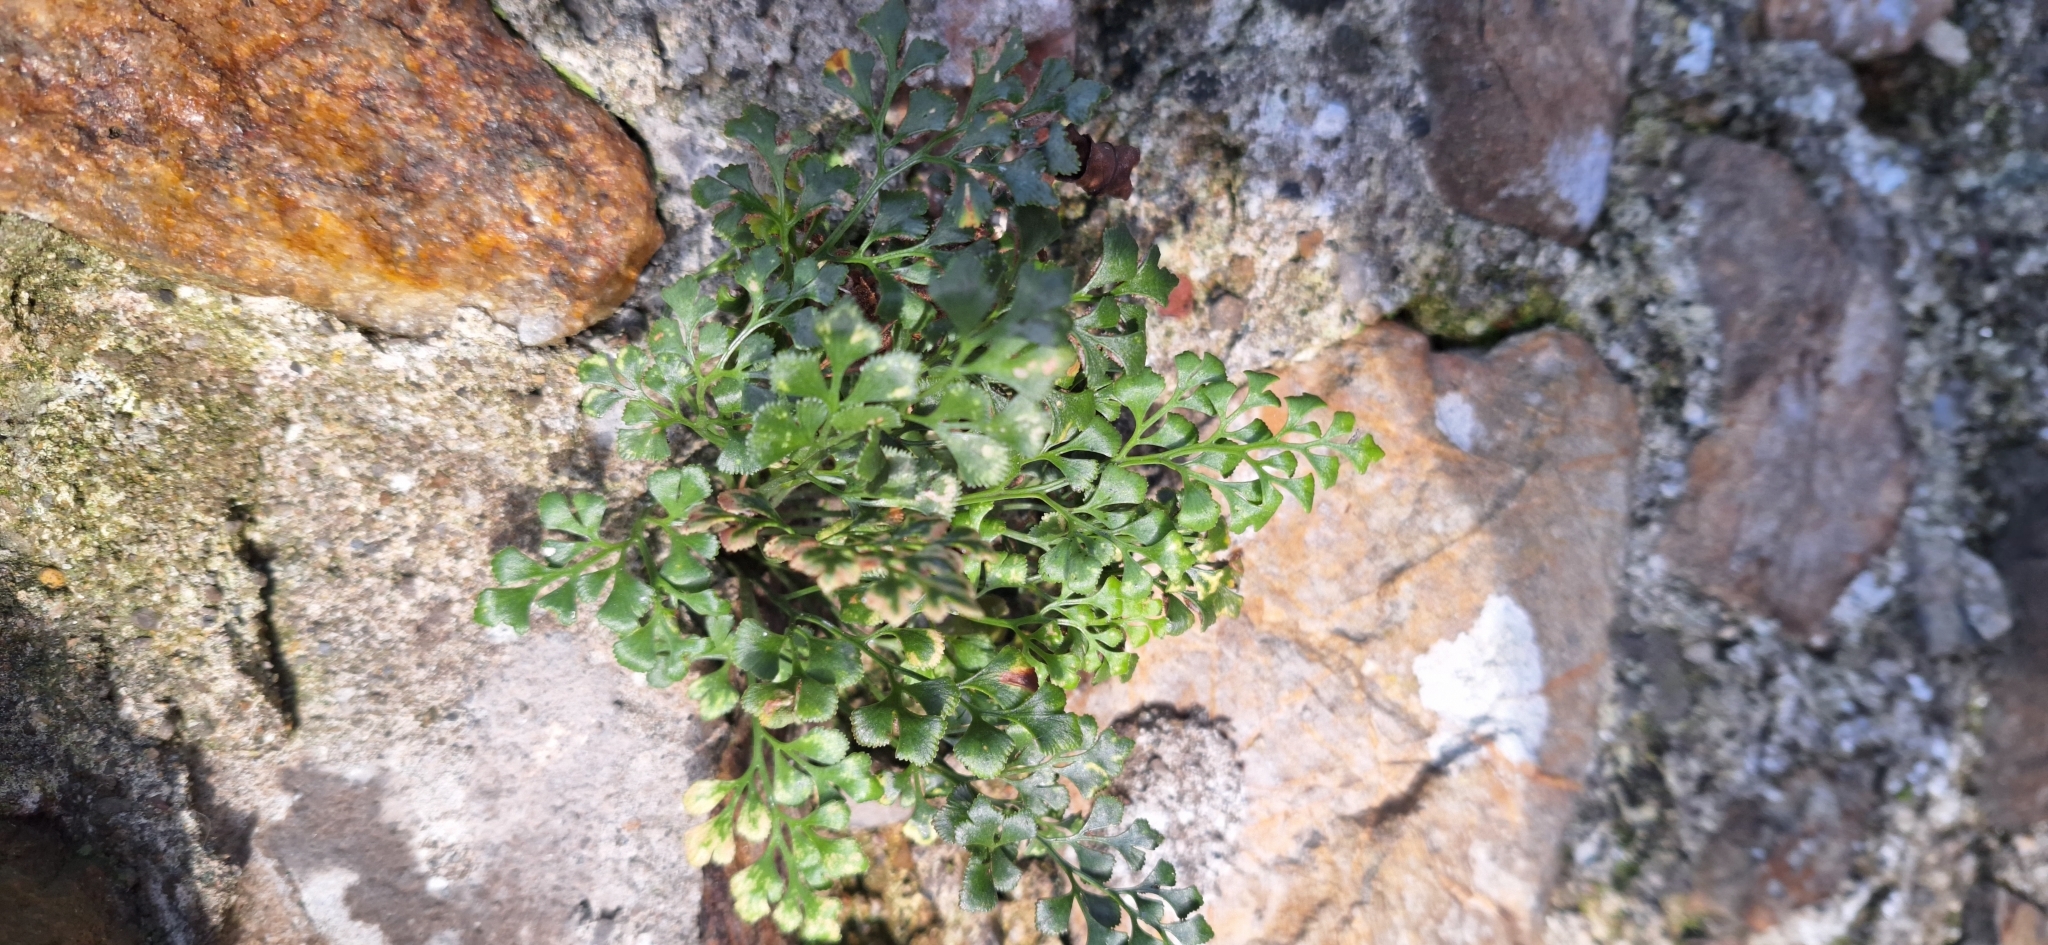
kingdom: Plantae
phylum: Tracheophyta
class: Polypodiopsida
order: Polypodiales
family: Aspleniaceae
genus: Asplenium
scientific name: Asplenium ruta-muraria
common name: Wall-rue
